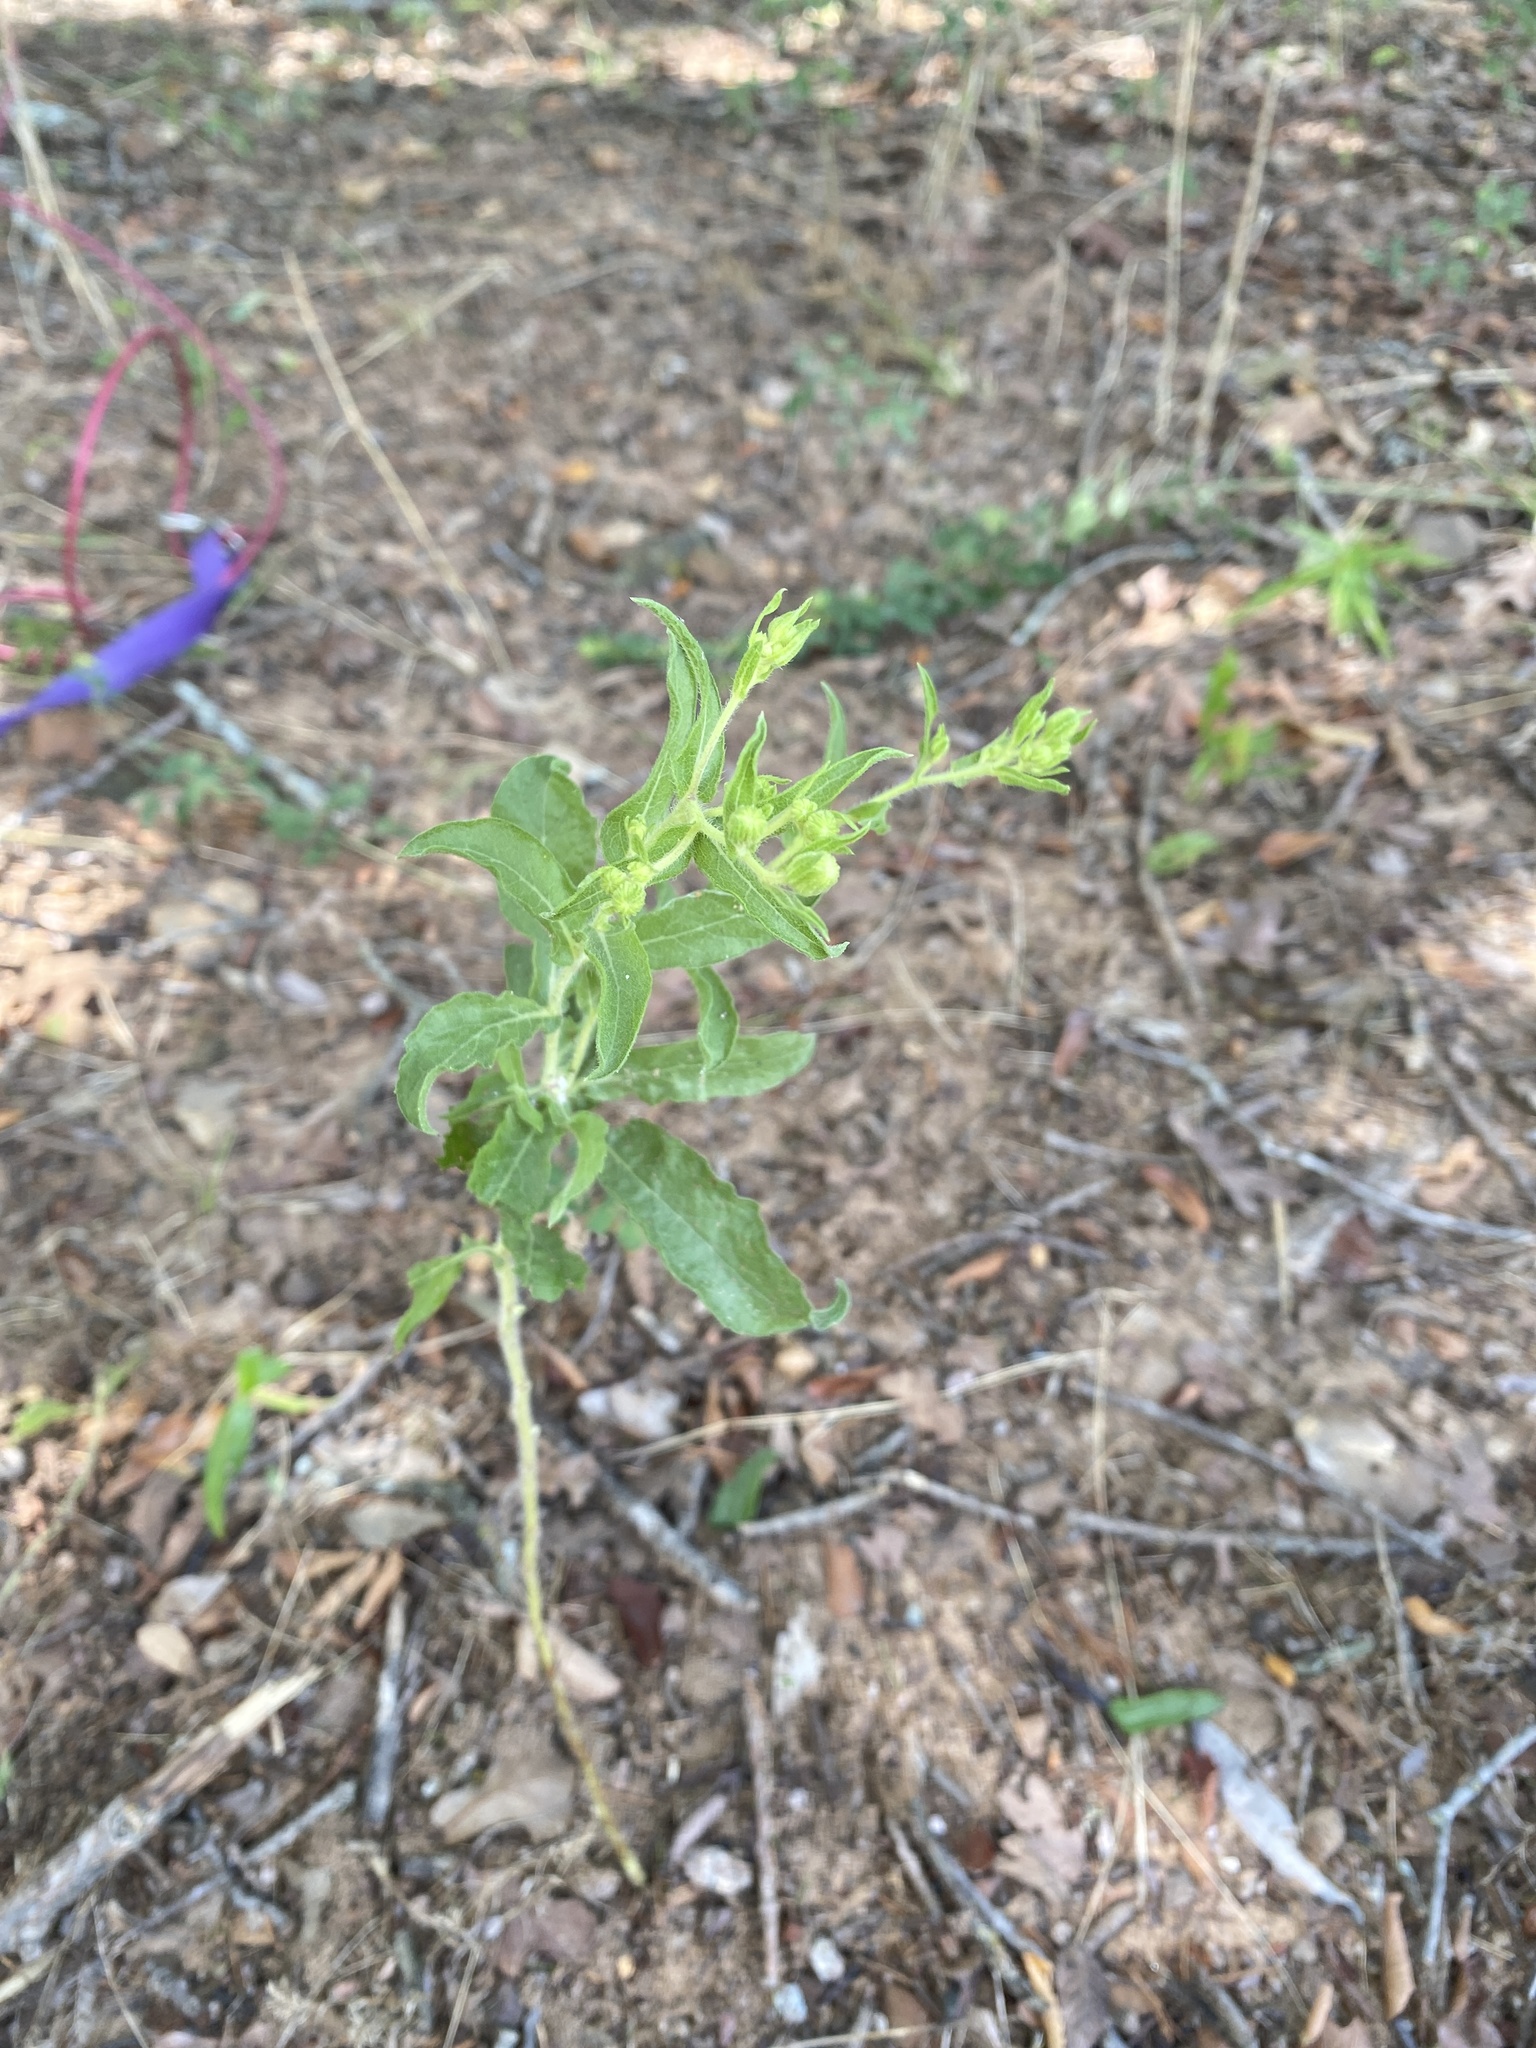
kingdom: Plantae
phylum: Tracheophyta
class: Magnoliopsida
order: Asterales
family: Asteraceae
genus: Heterotheca
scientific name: Heterotheca subaxillaris
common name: Camphorweed
